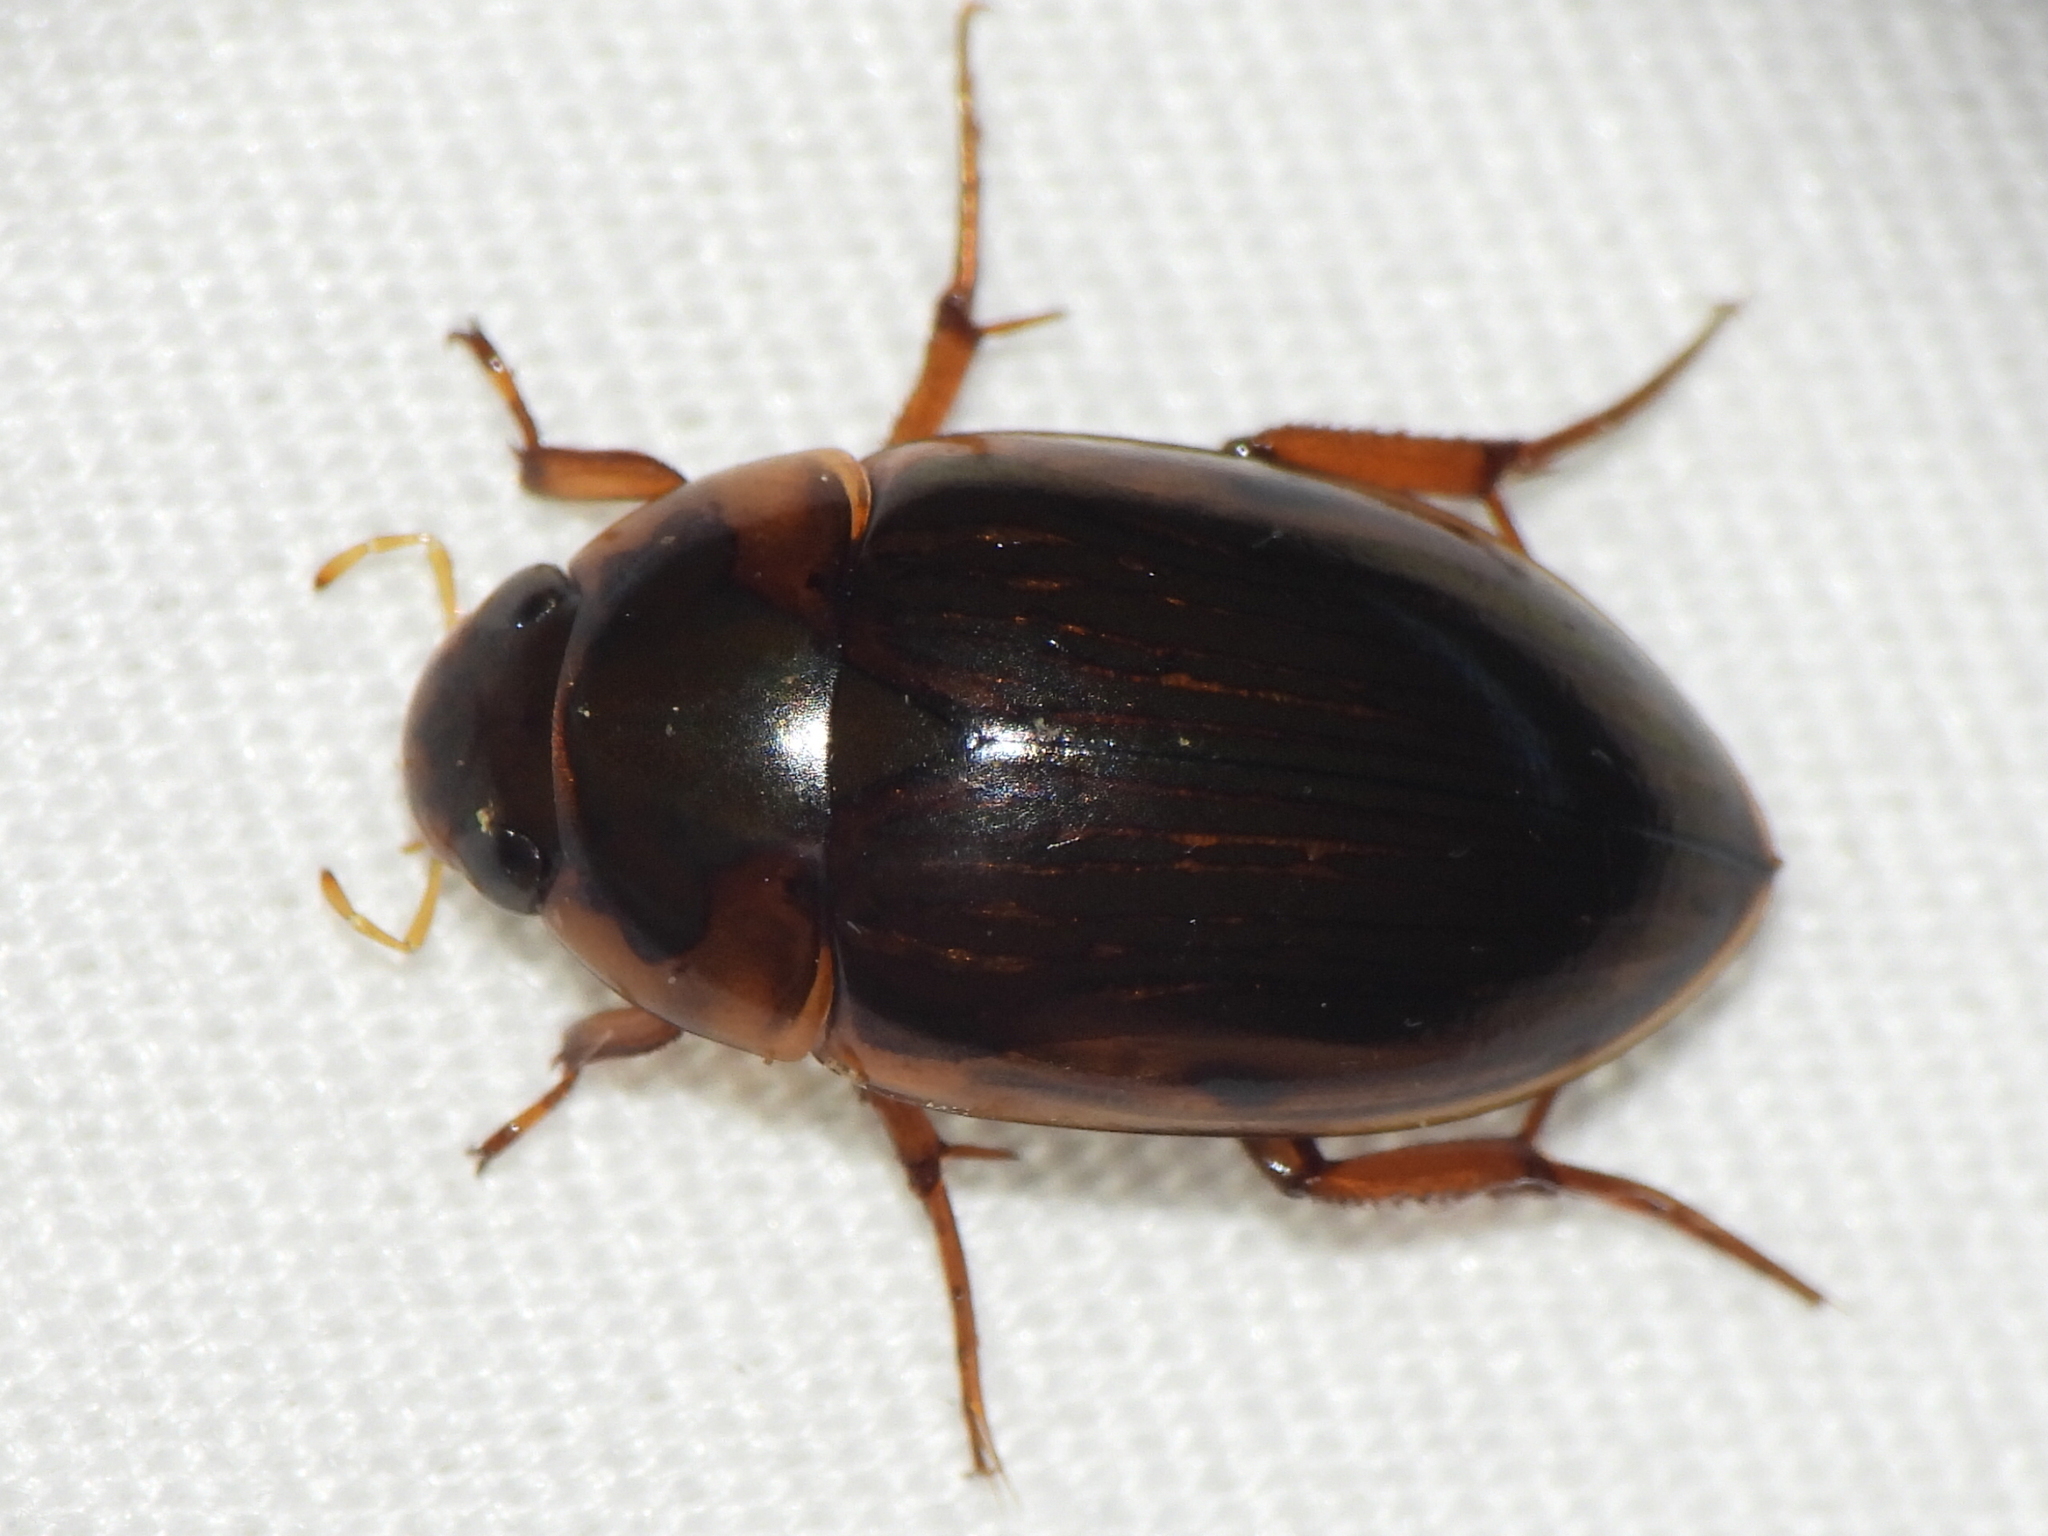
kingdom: Animalia
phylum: Arthropoda
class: Insecta
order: Coleoptera
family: Hydrophilidae
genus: Tropisternus
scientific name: Tropisternus collaris
